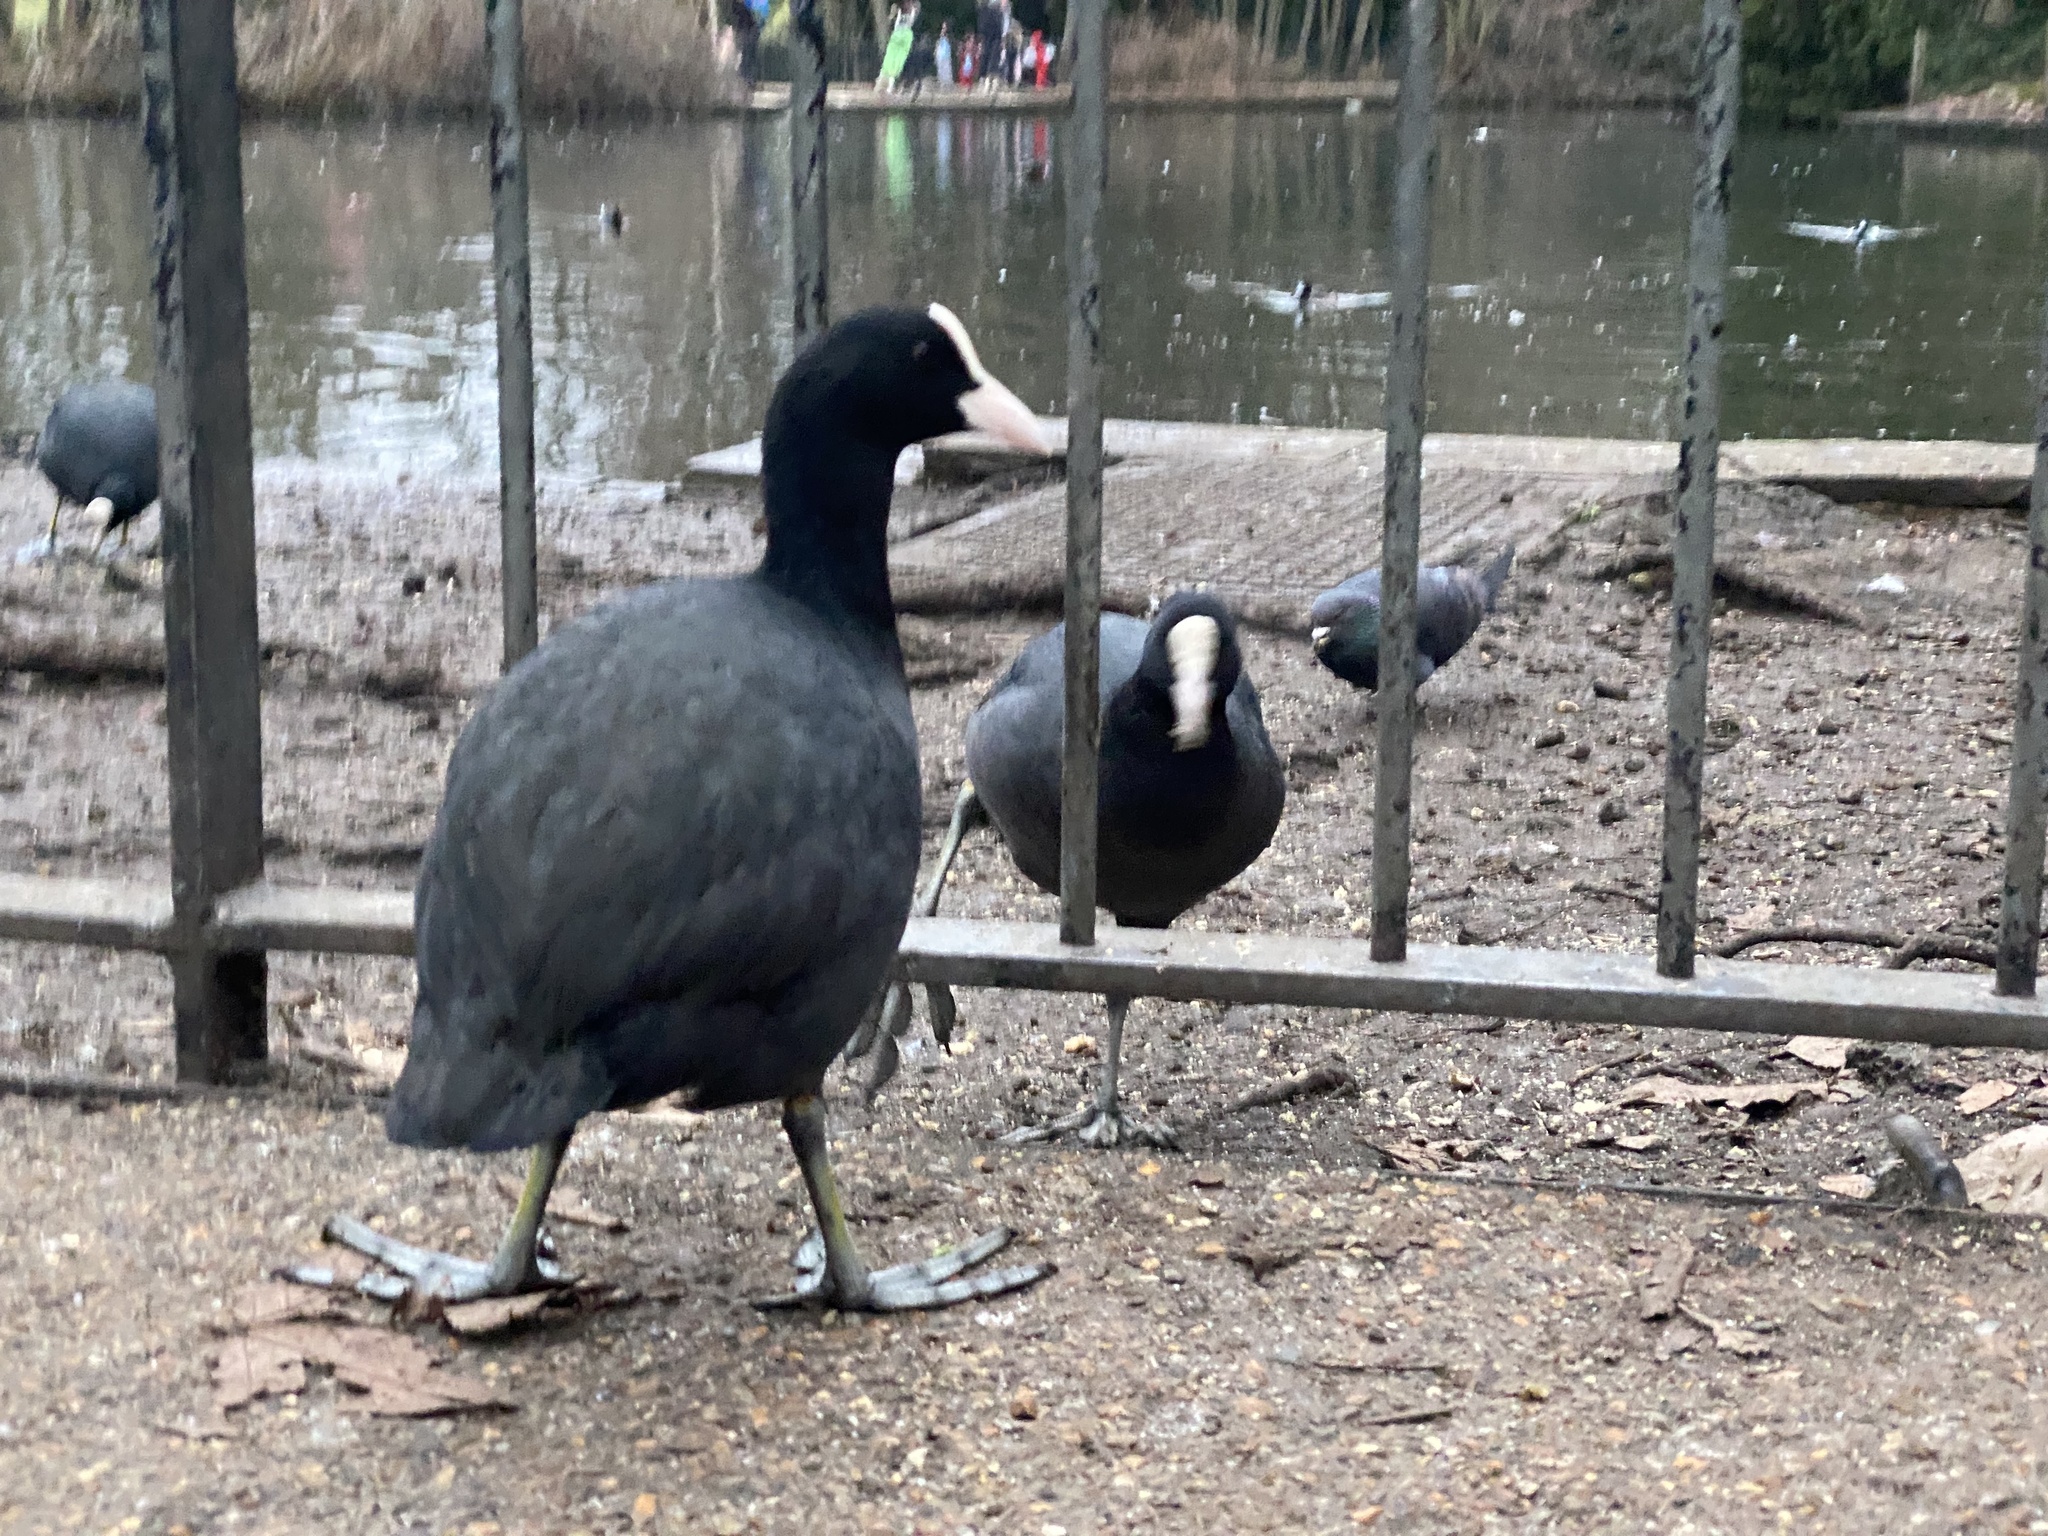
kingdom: Animalia
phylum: Chordata
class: Aves
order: Gruiformes
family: Rallidae
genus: Fulica
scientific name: Fulica atra
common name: Eurasian coot
